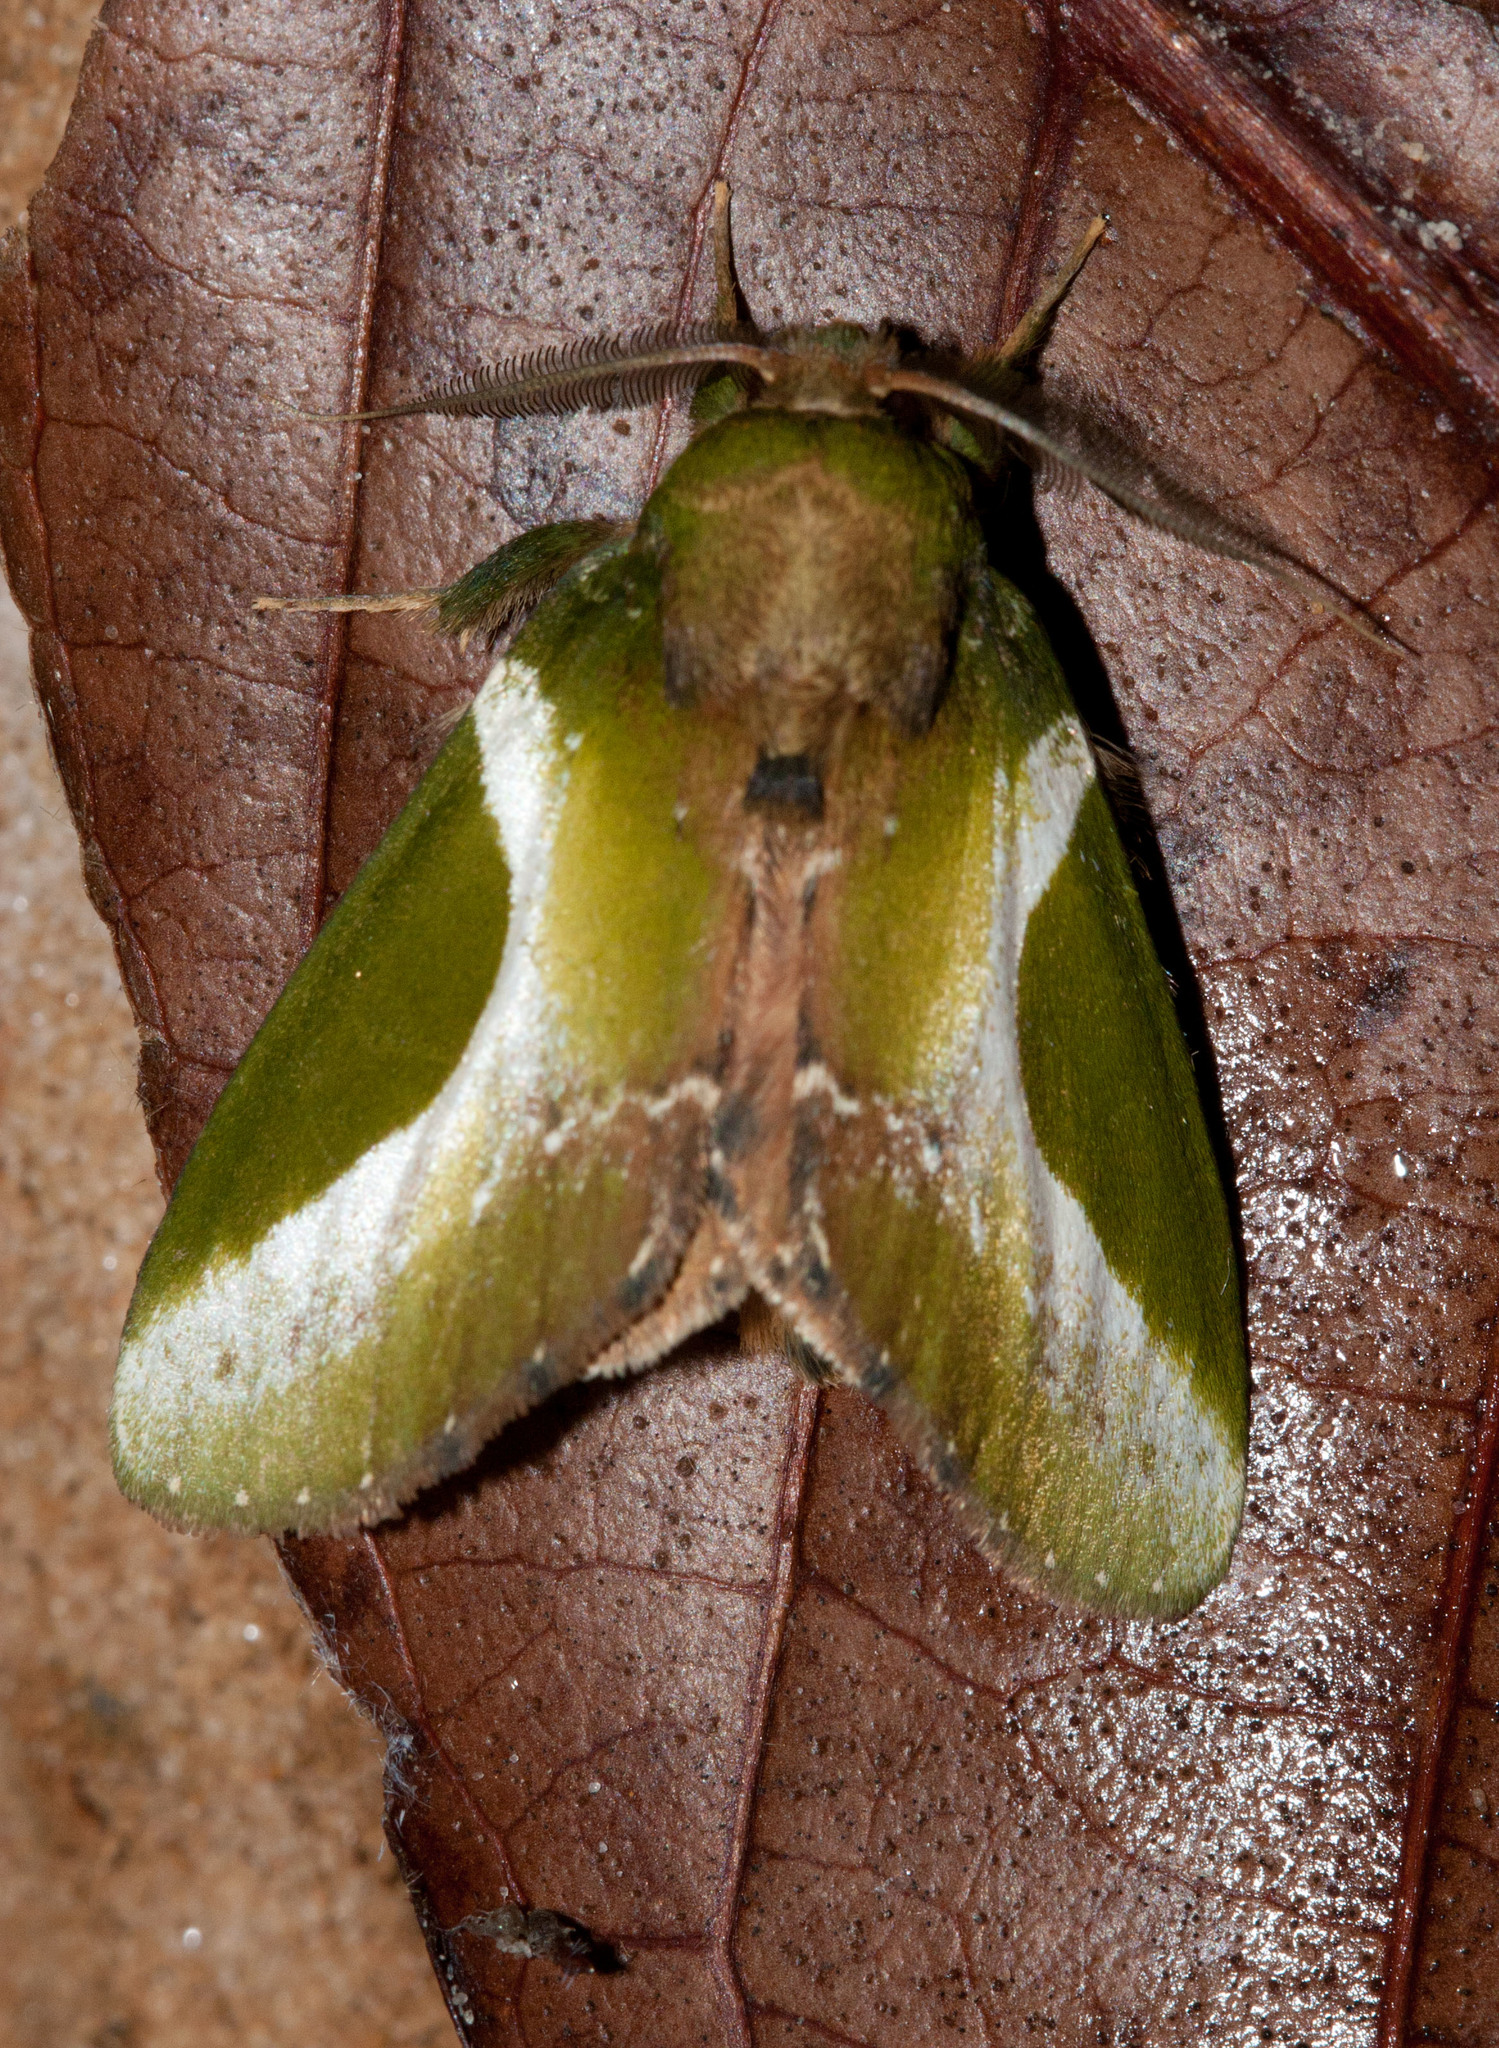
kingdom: Animalia
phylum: Arthropoda
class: Insecta
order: Lepidoptera
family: Notodontidae
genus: Disphragis
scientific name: Disphragis splendens
